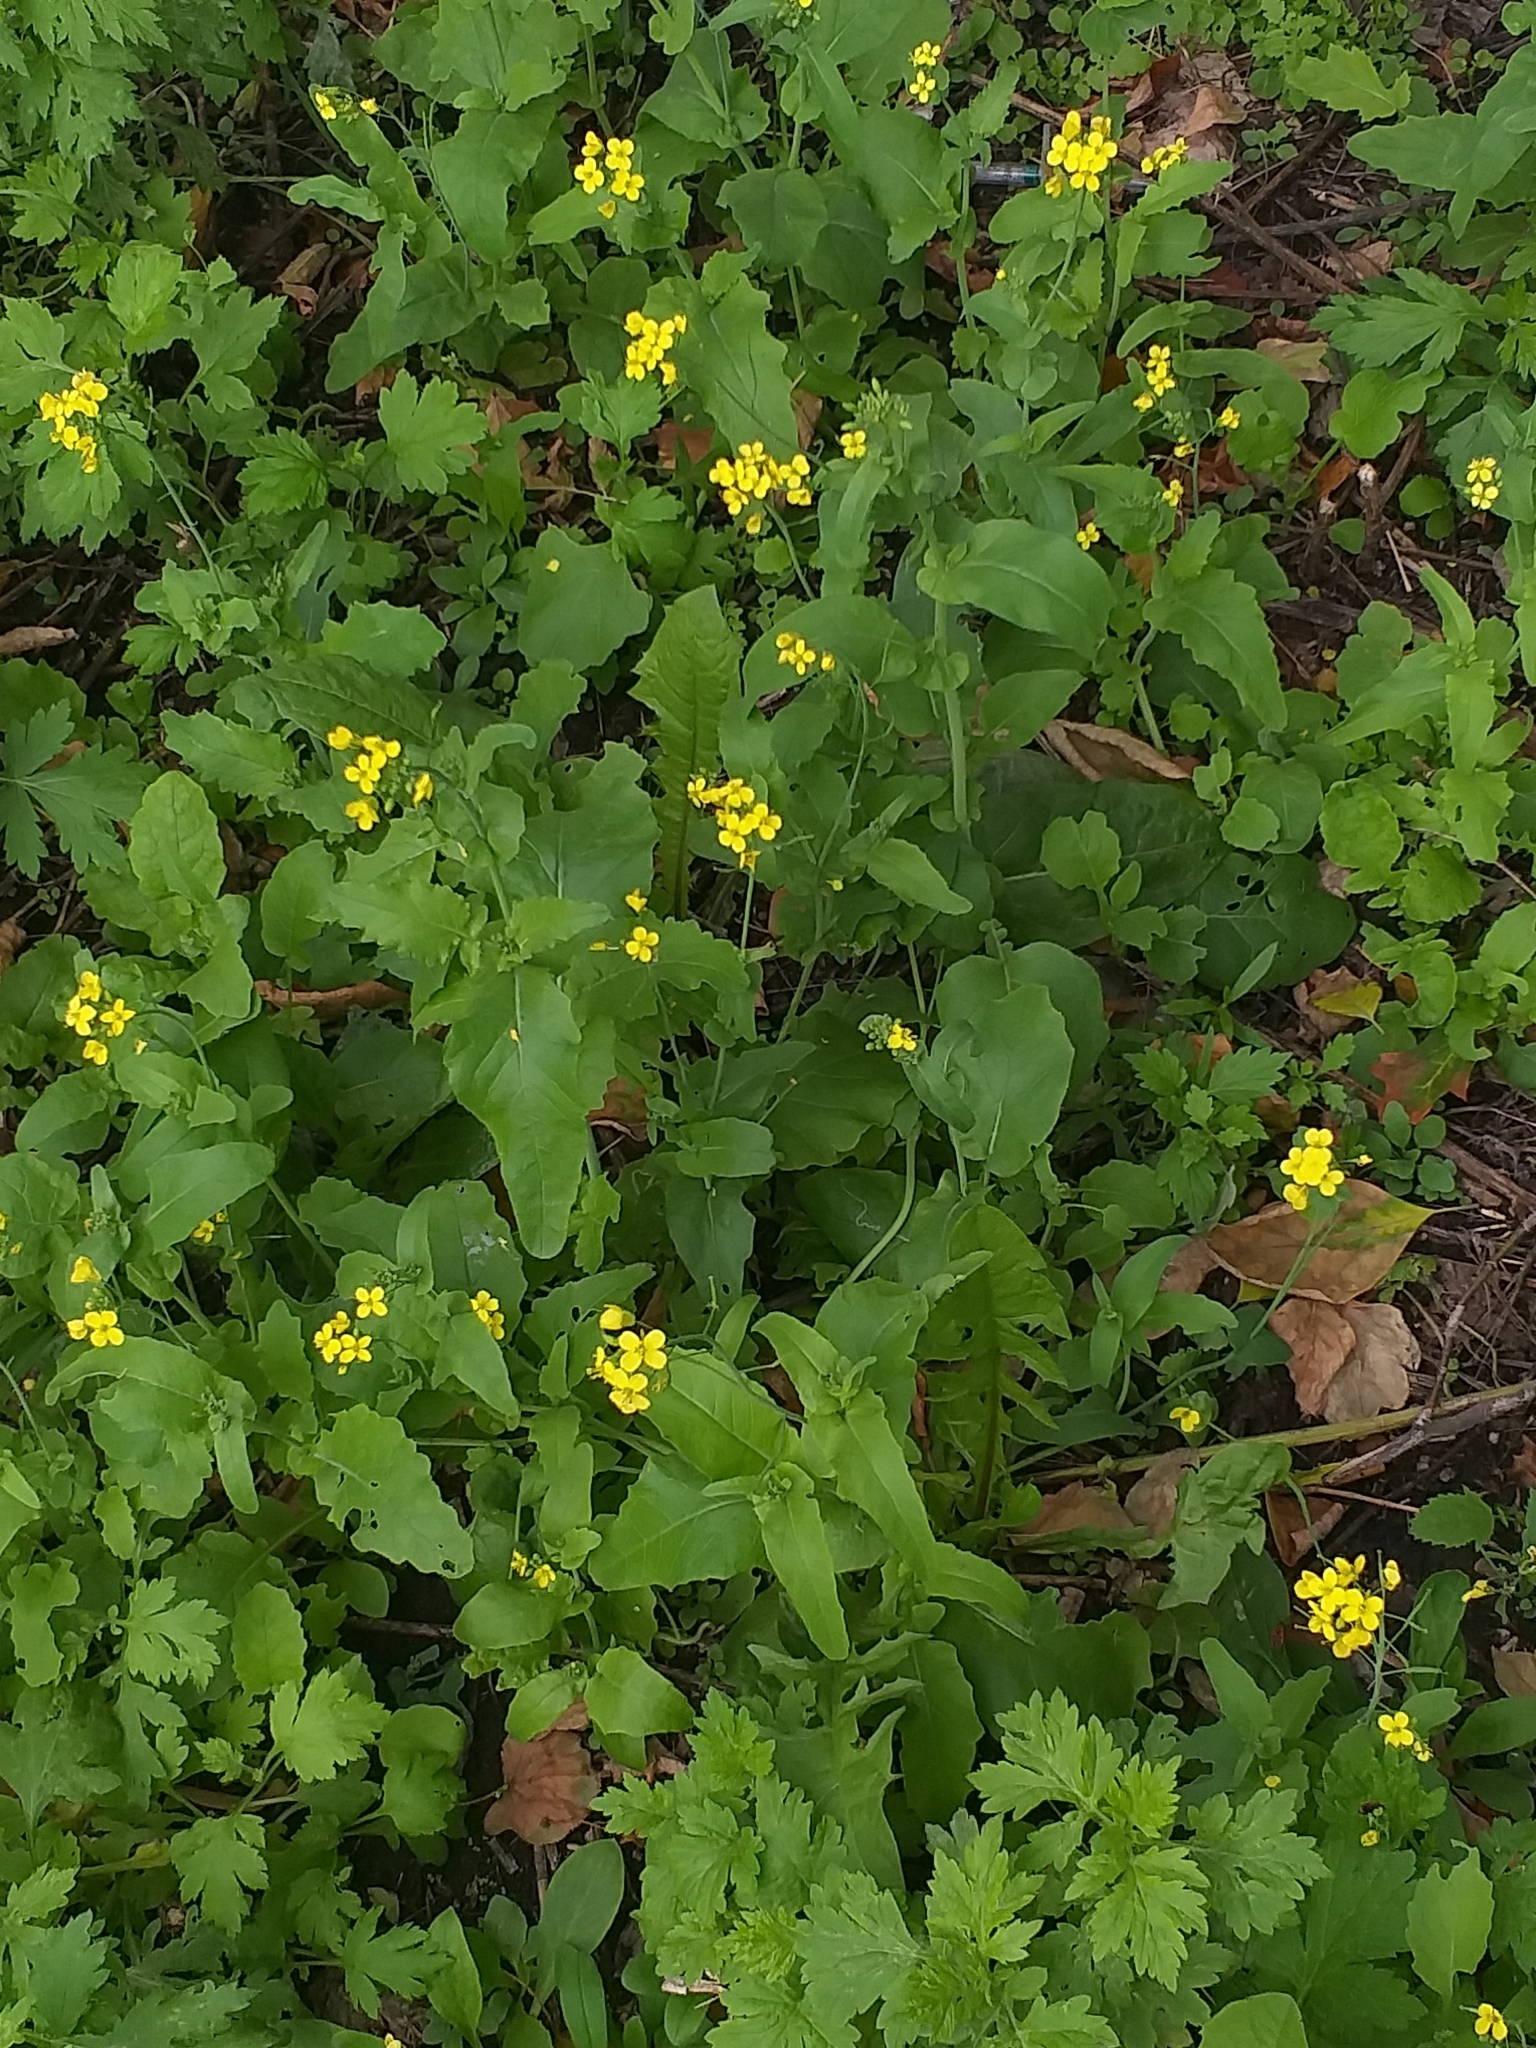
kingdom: Plantae
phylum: Tracheophyta
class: Magnoliopsida
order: Brassicales
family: Brassicaceae
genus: Brassica
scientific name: Brassica rapa
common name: Field mustard
